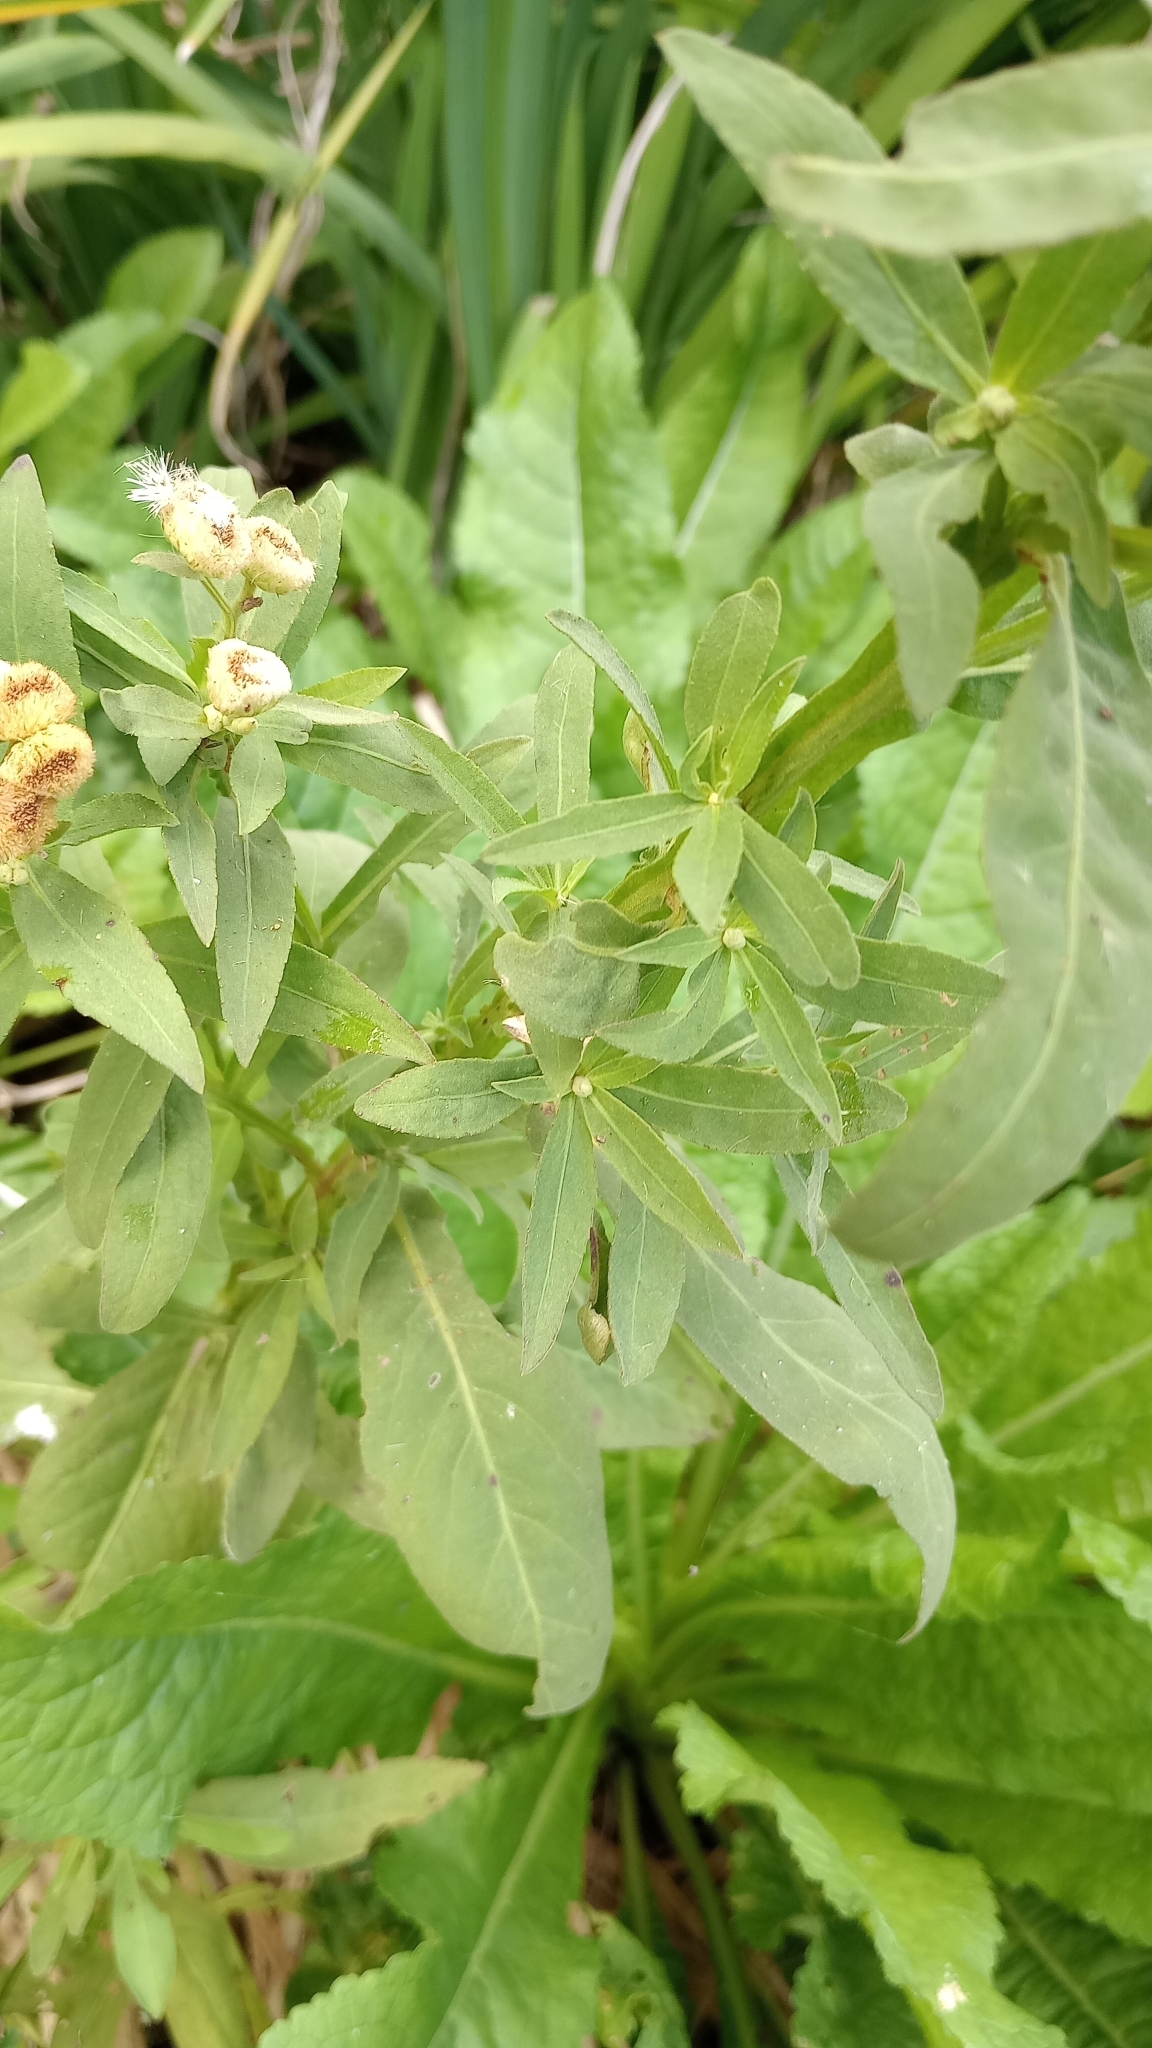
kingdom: Plantae
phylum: Tracheophyta
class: Magnoliopsida
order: Asterales
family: Asteraceae
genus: Pluchea
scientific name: Pluchea sagittalis
